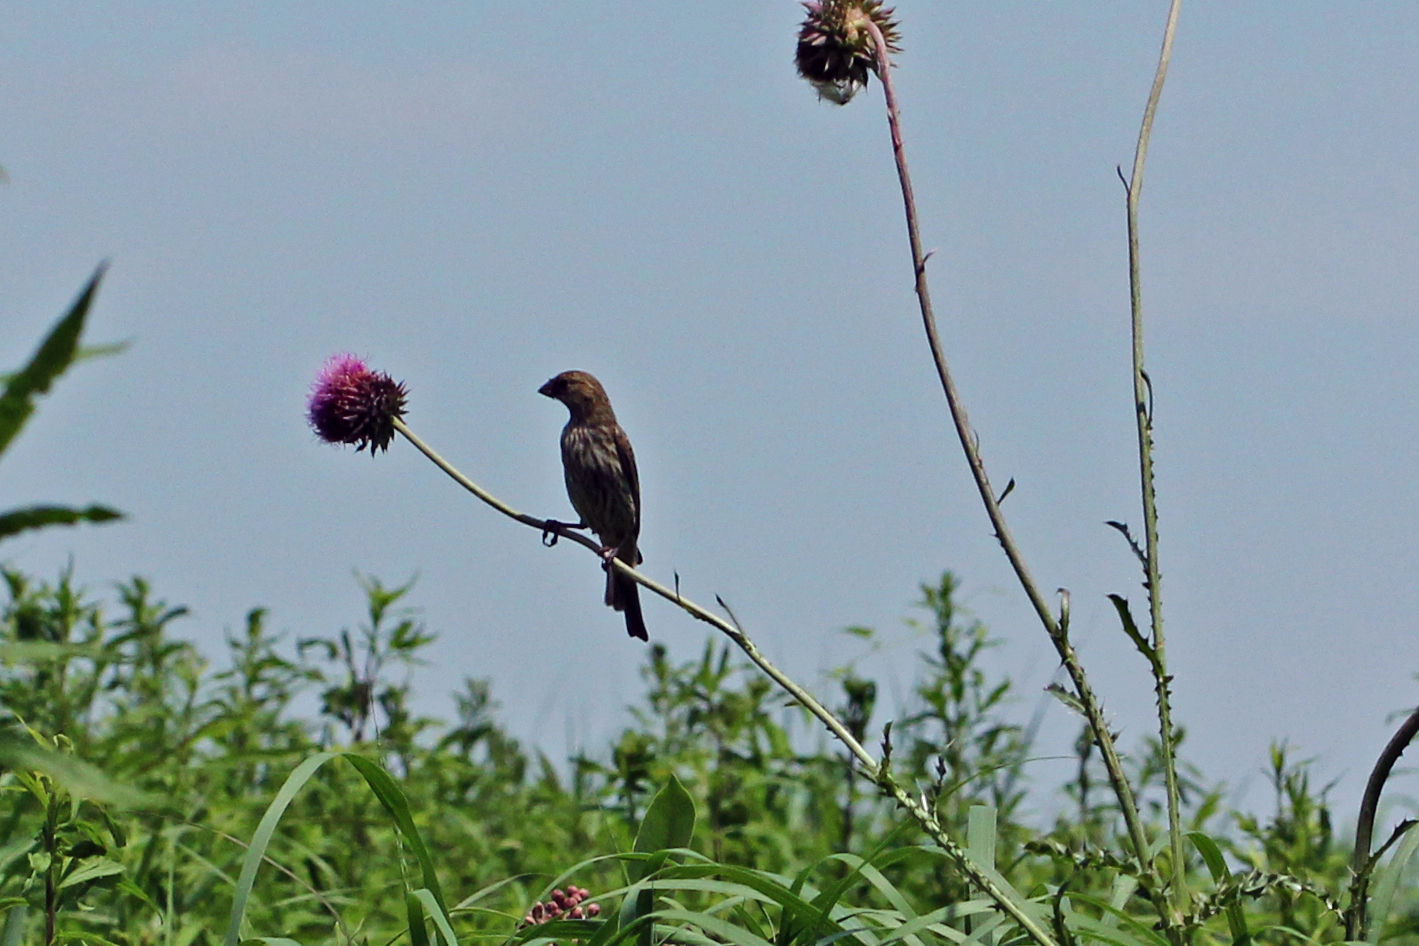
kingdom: Animalia
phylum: Chordata
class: Aves
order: Passeriformes
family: Fringillidae
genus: Haemorhous
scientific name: Haemorhous mexicanus
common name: House finch
